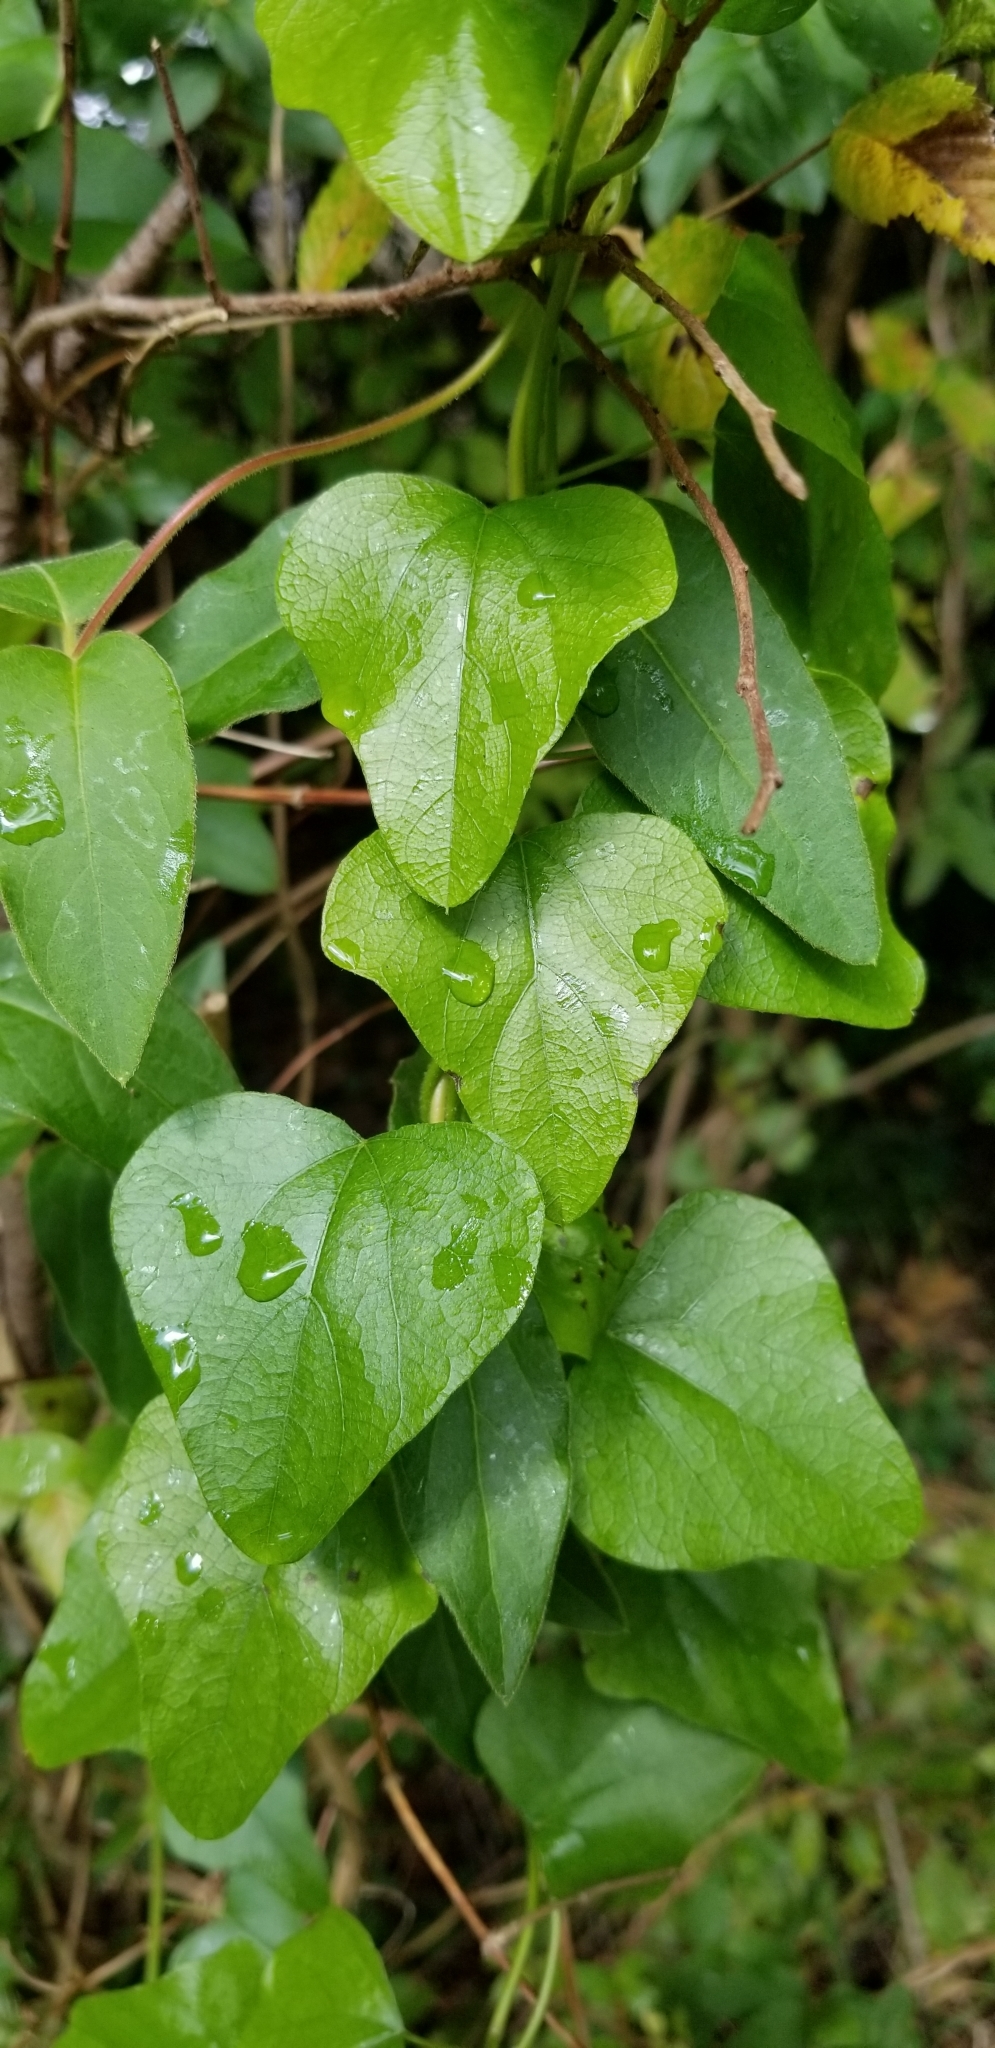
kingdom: Plantae
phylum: Tracheophyta
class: Magnoliopsida
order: Ranunculales
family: Menispermaceae
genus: Cocculus
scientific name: Cocculus carolinus
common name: Carolina moonseed
